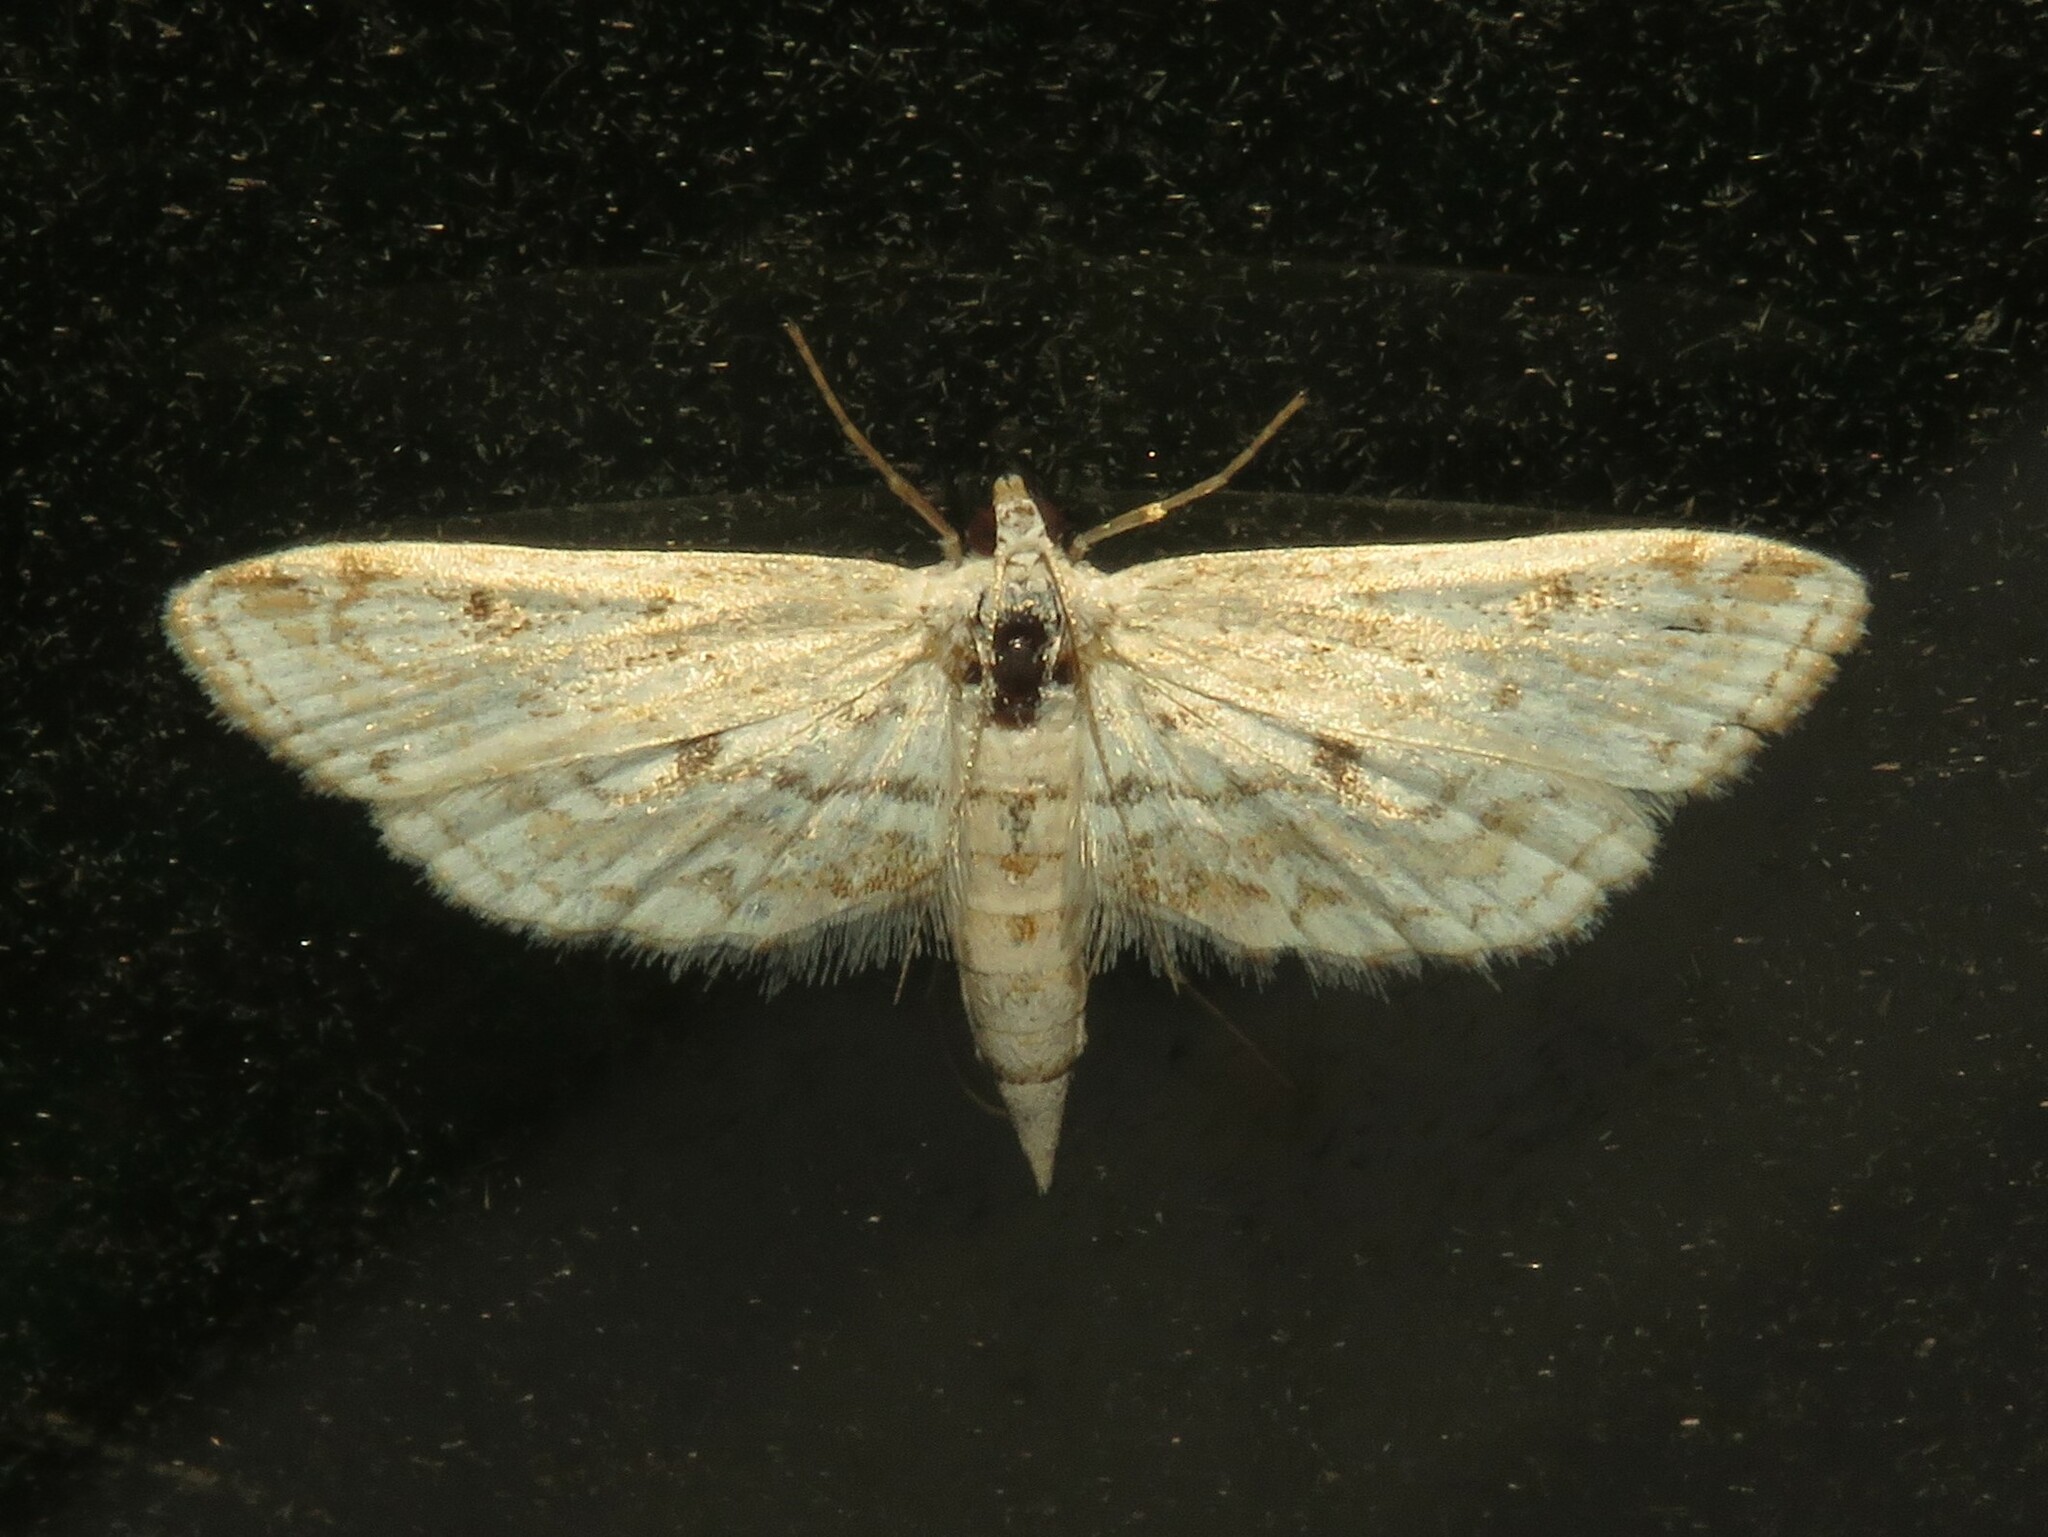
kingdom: Animalia
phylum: Arthropoda
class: Insecta
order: Lepidoptera
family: Crambidae
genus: Parapoynx
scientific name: Parapoynx allionealis
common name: Bladderwort casemaker
